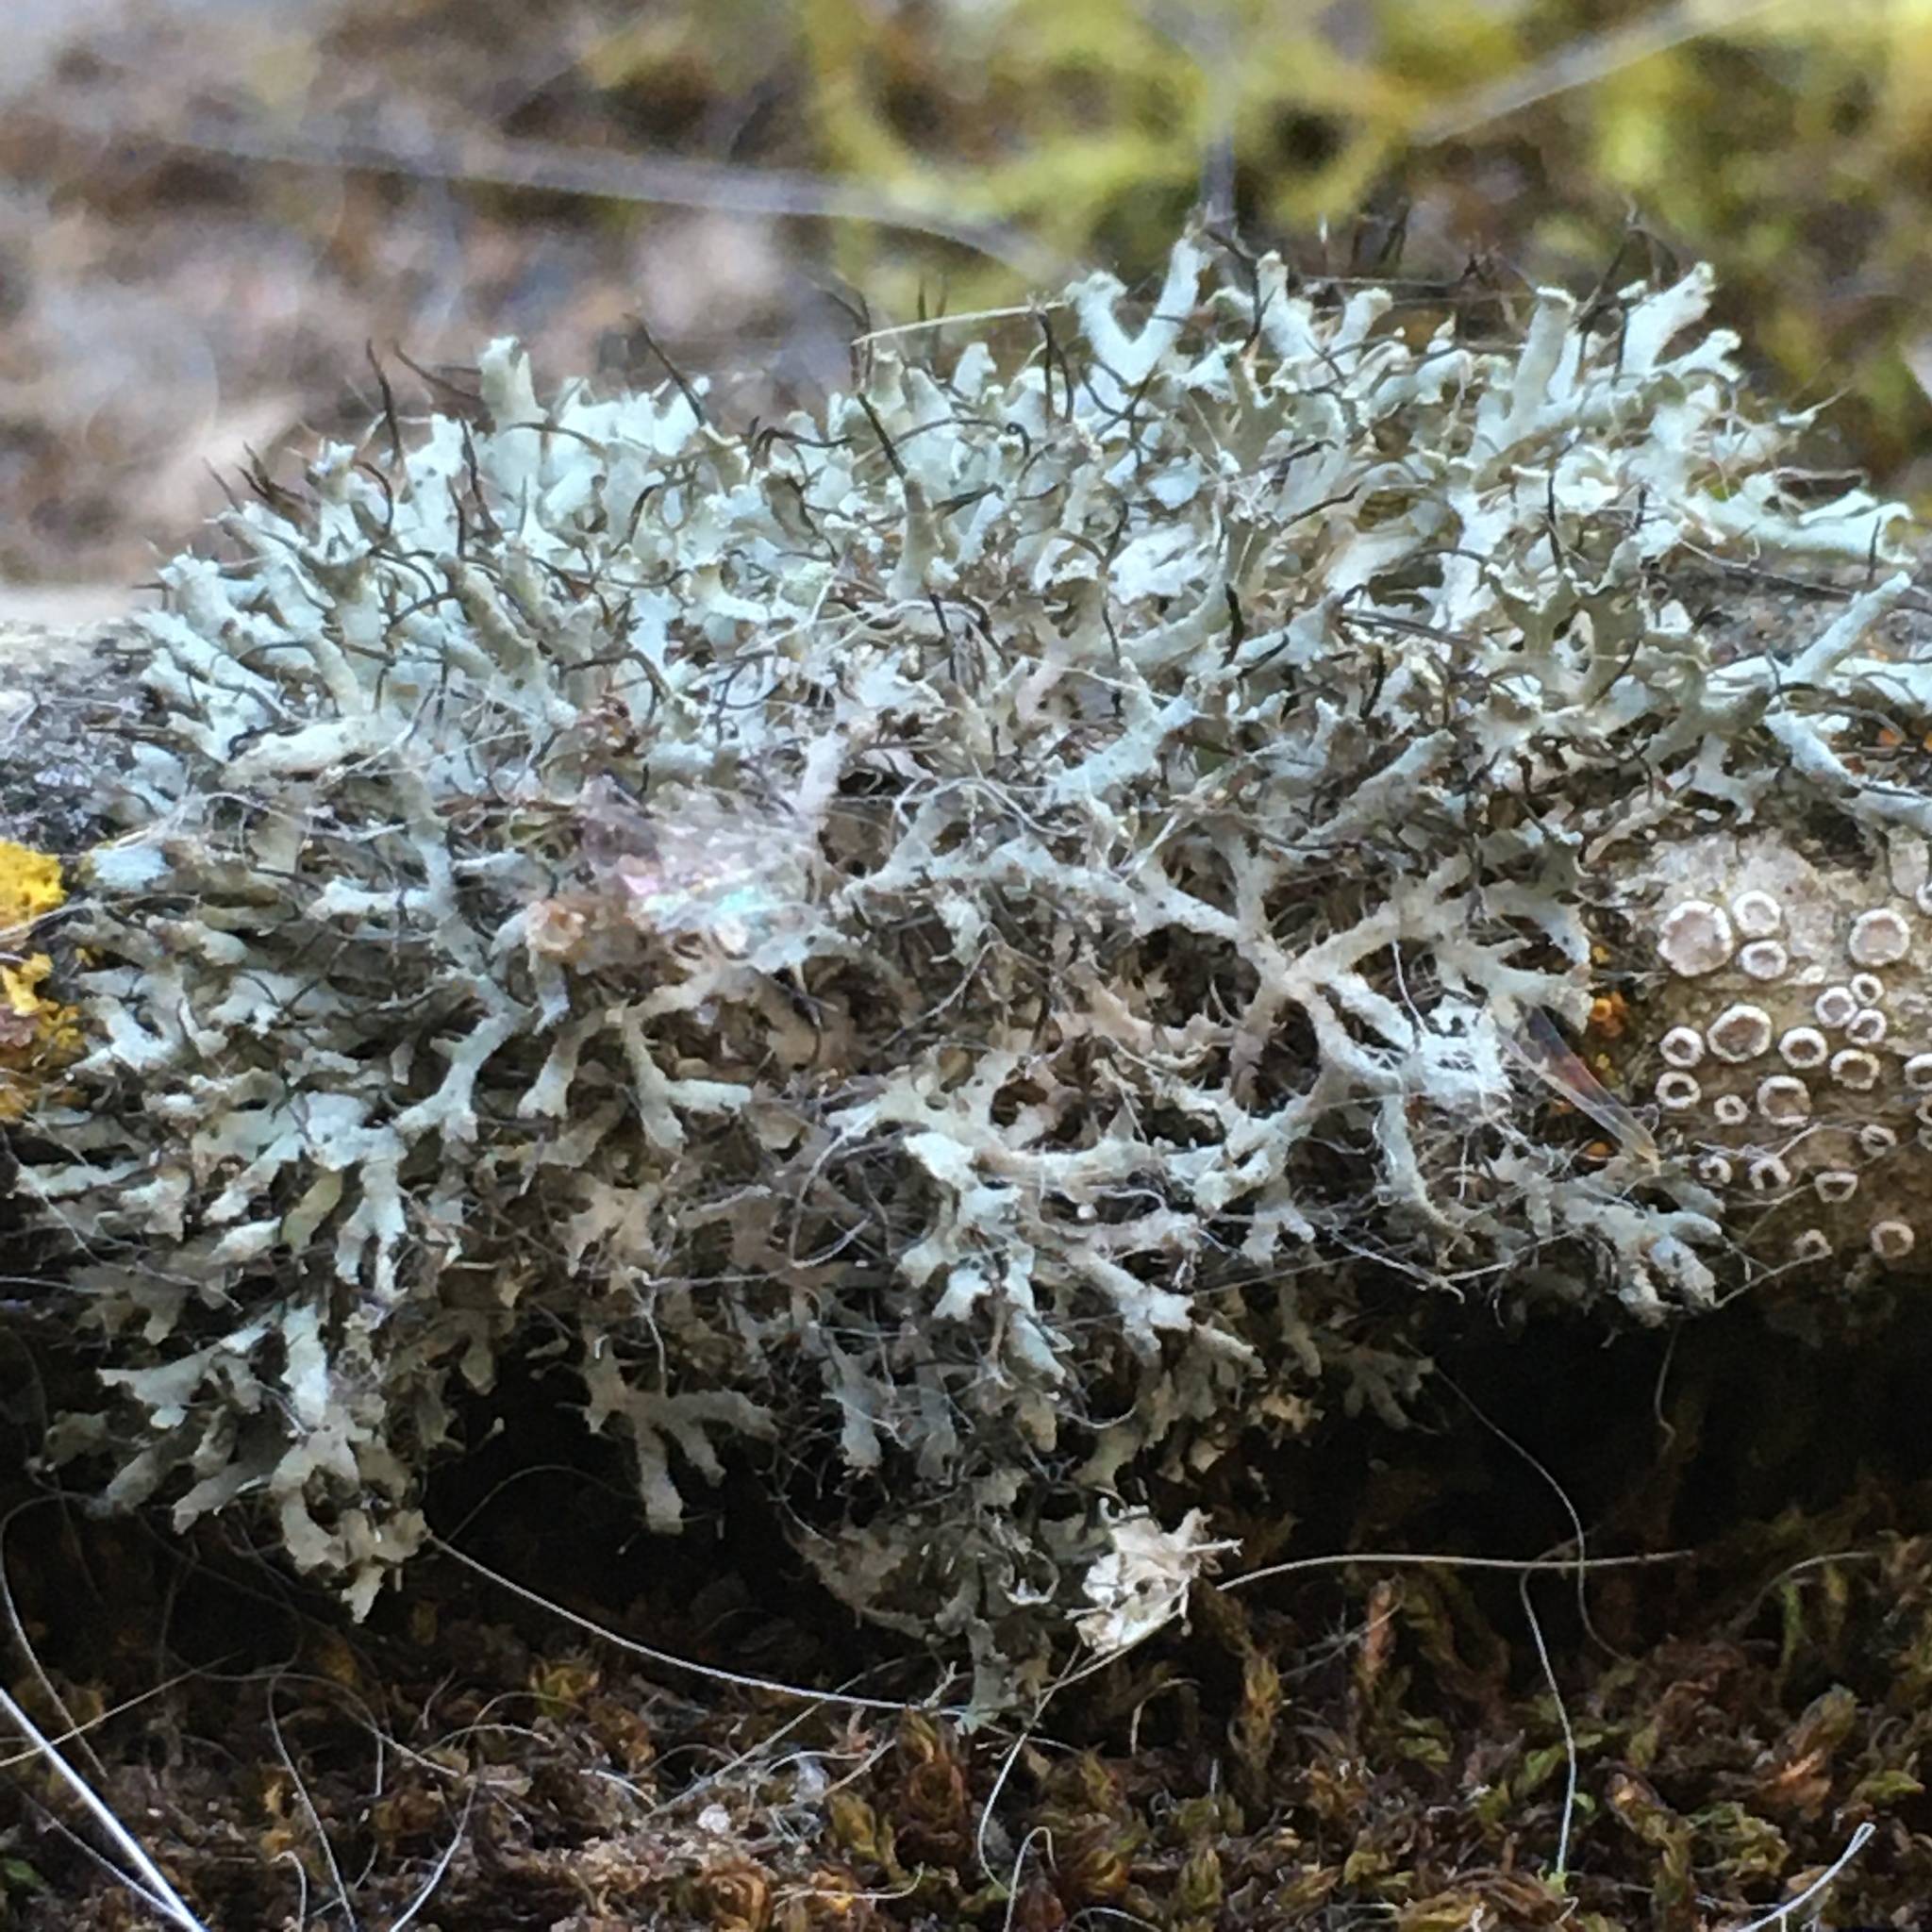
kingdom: Fungi
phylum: Ascomycota
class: Lecanoromycetes
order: Caliciales
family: Physciaceae
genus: Physcia
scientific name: Physcia tenella
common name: Fringed rosette lichen
